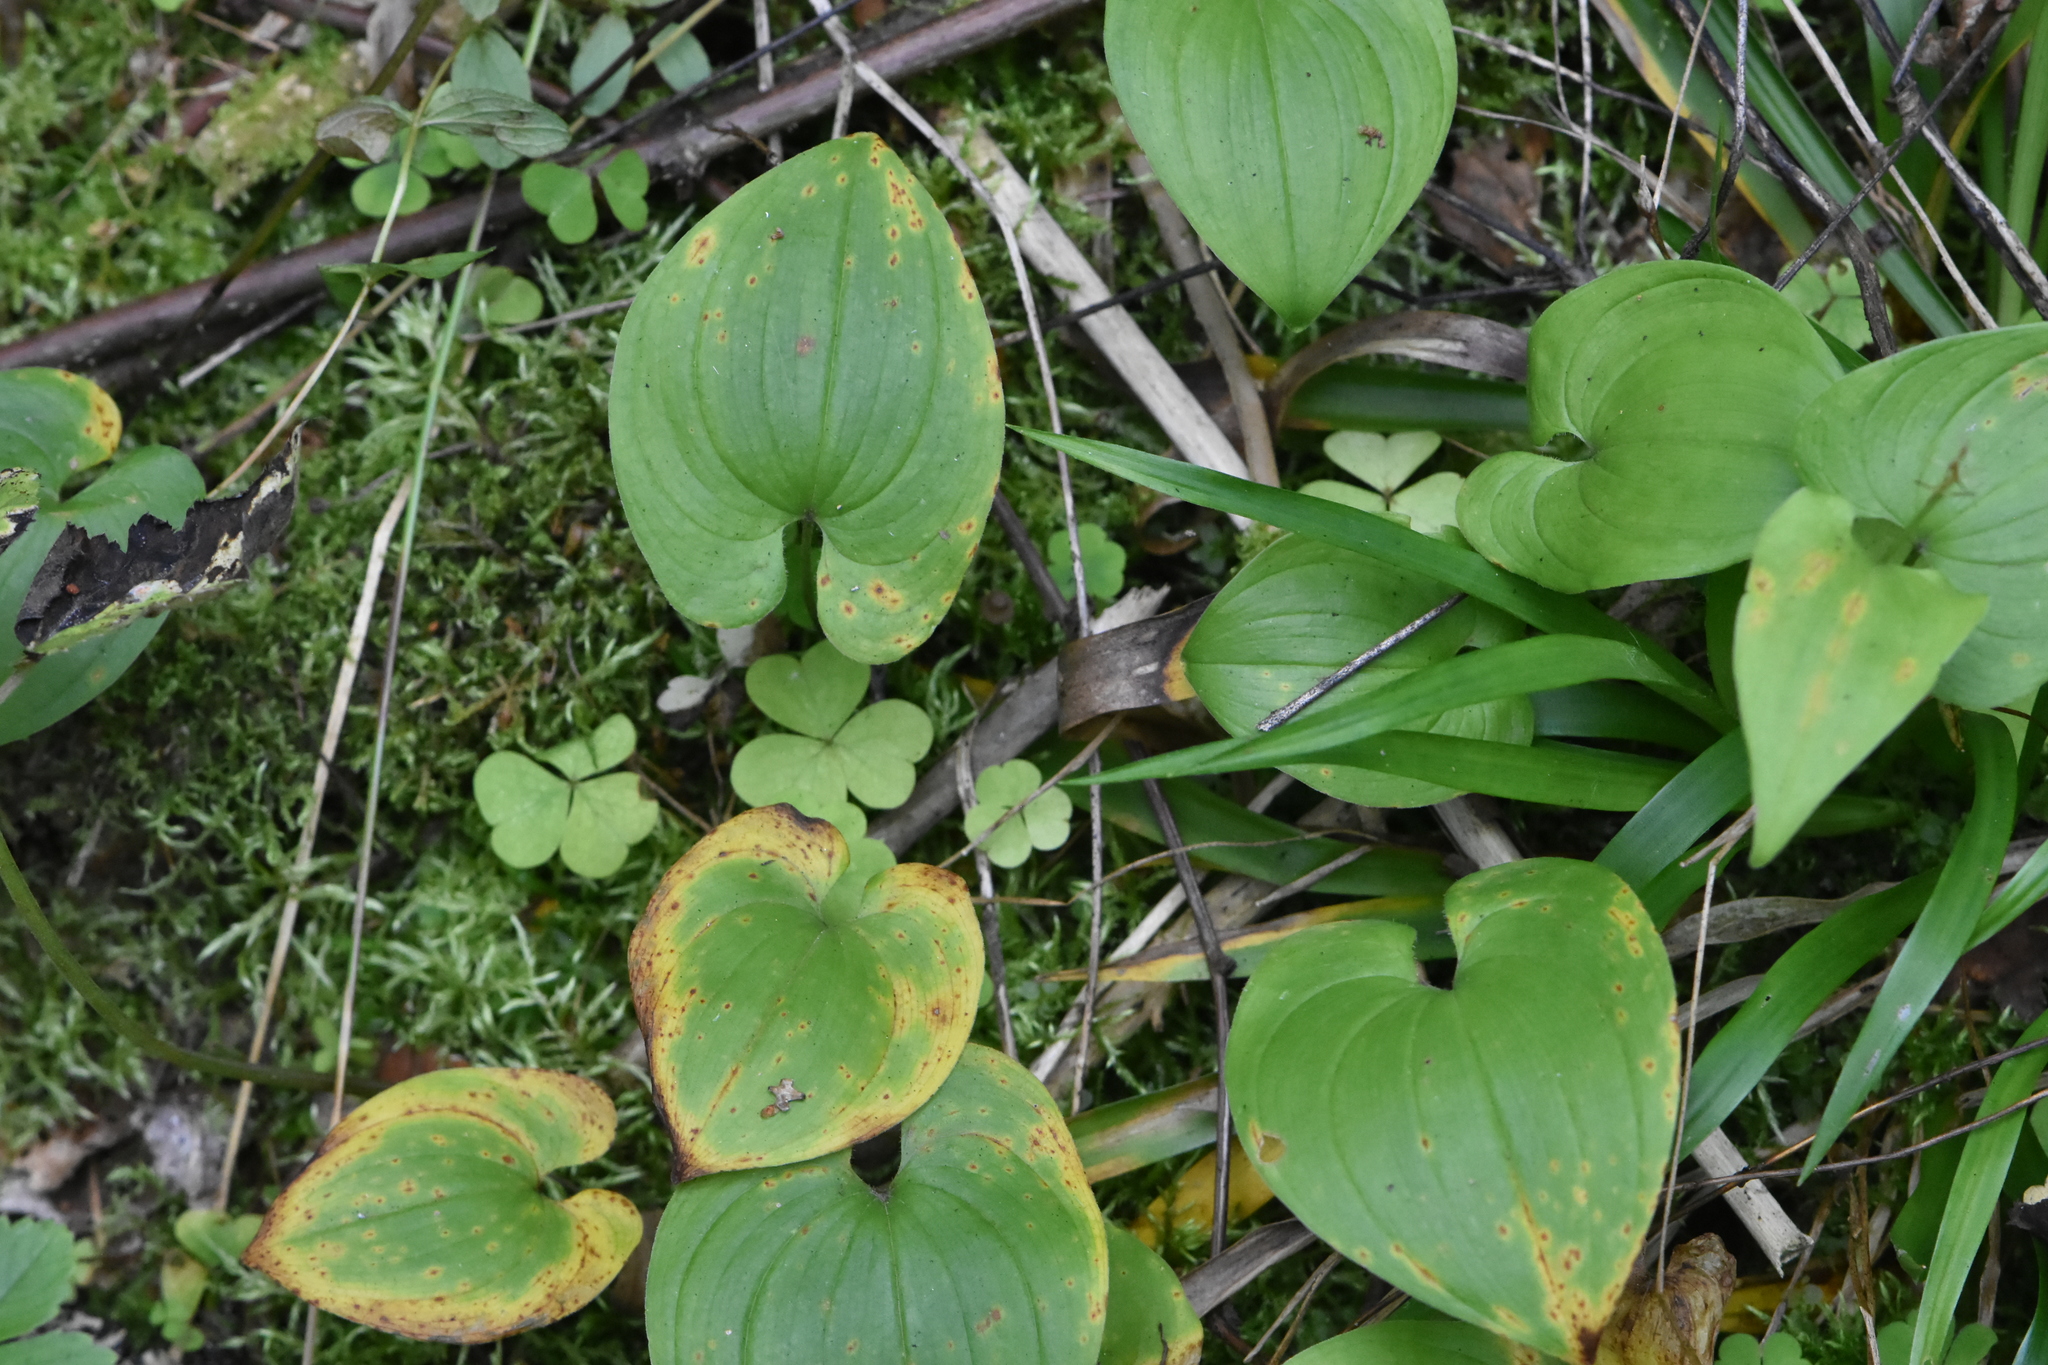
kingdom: Plantae
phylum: Tracheophyta
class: Liliopsida
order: Asparagales
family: Asparagaceae
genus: Maianthemum
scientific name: Maianthemum bifolium
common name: May lily
